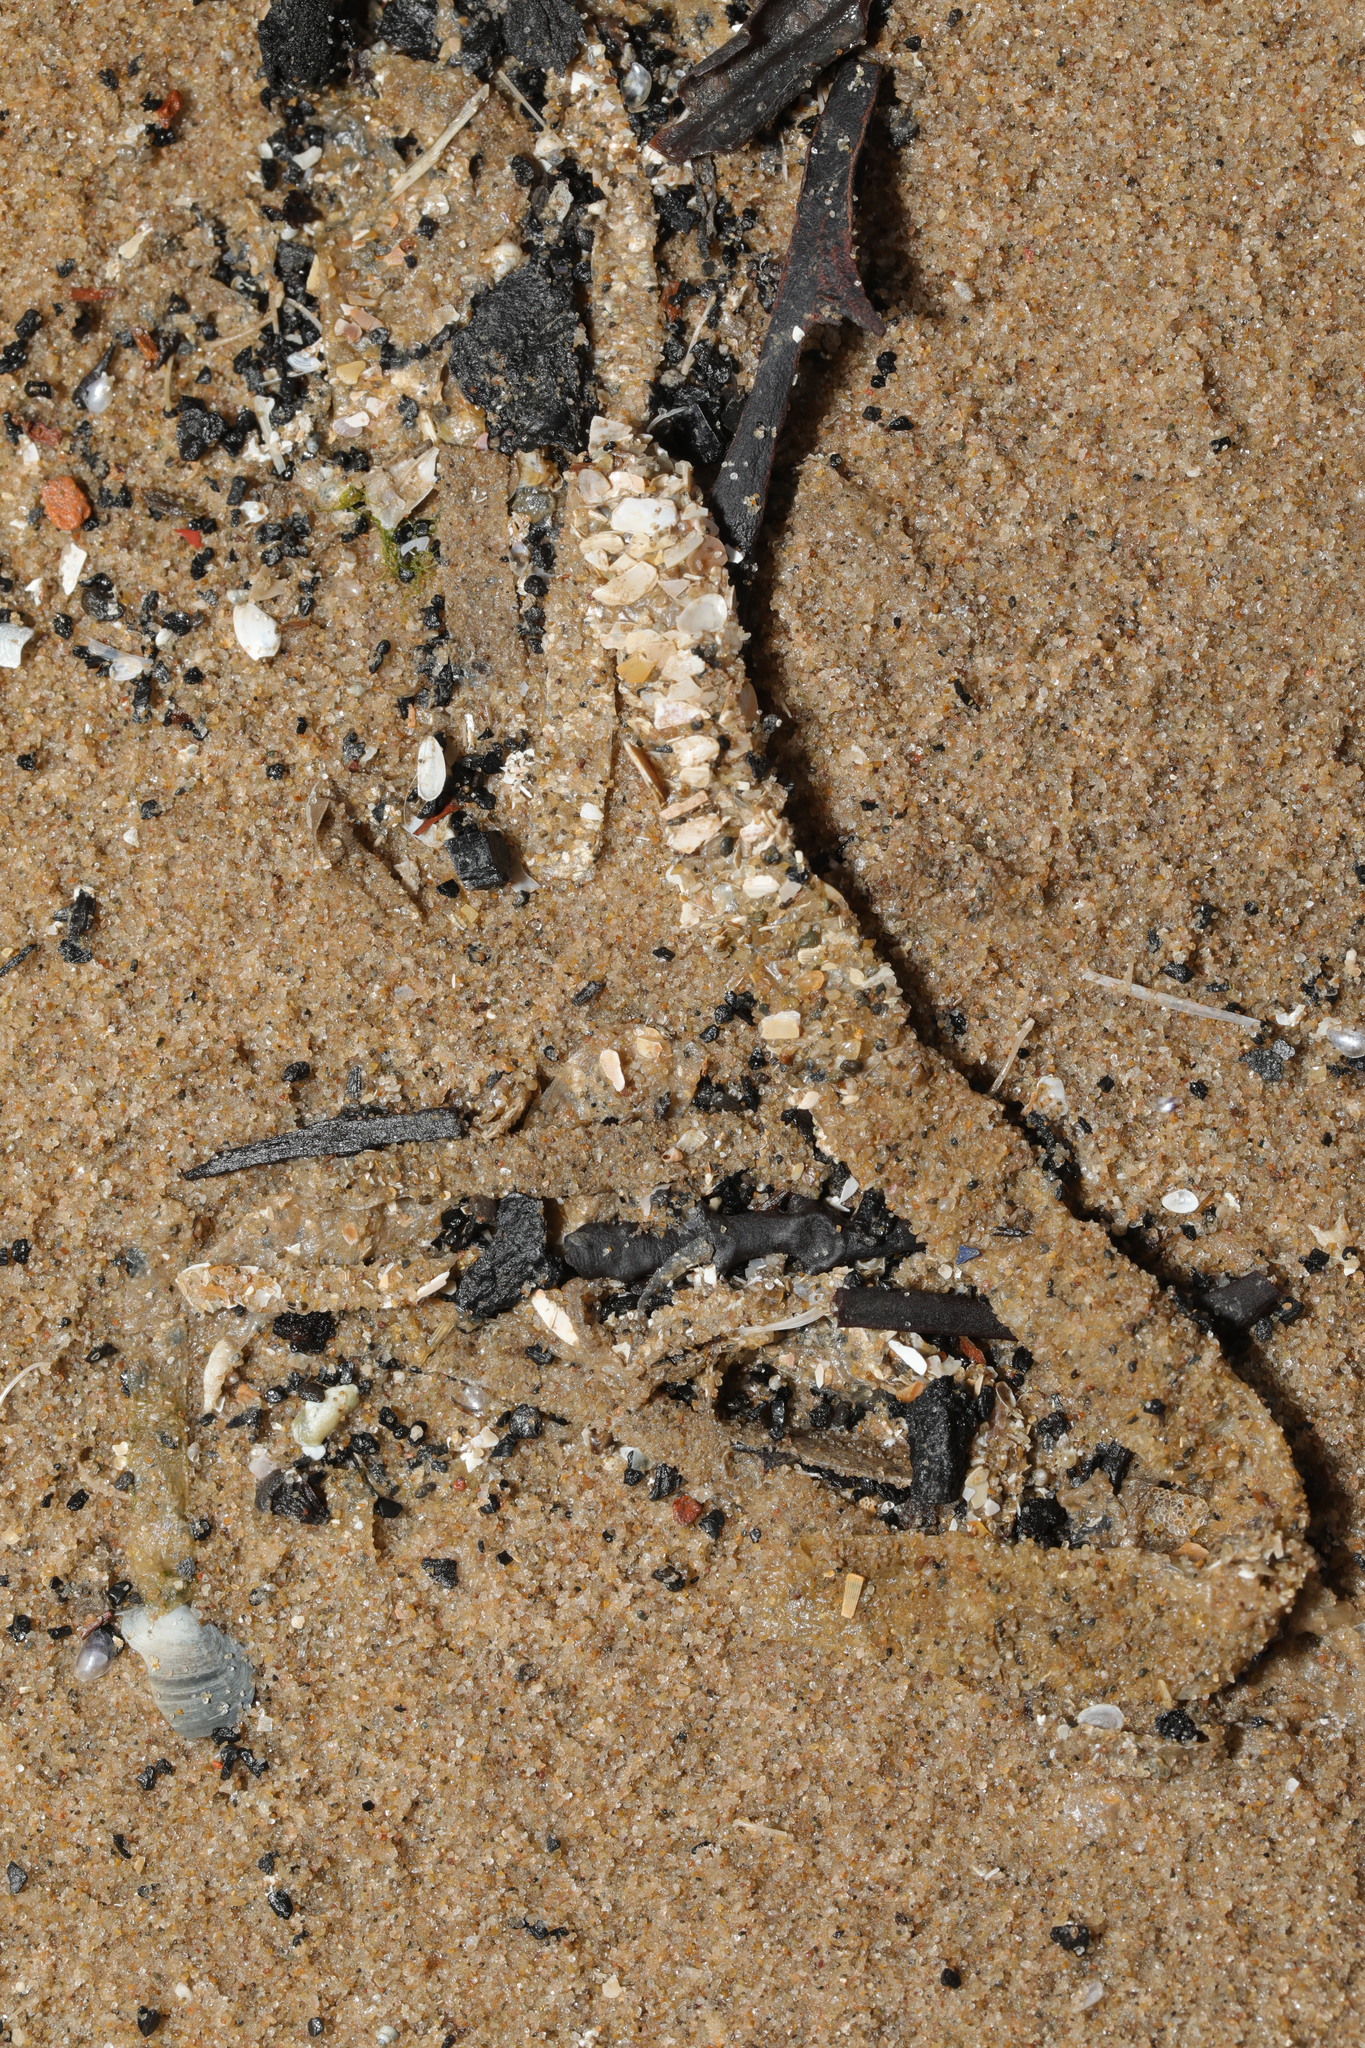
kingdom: Animalia
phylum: Annelida
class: Polychaeta
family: Terebellidae
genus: Lanice
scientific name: Lanice conchilega
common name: Sand mason
